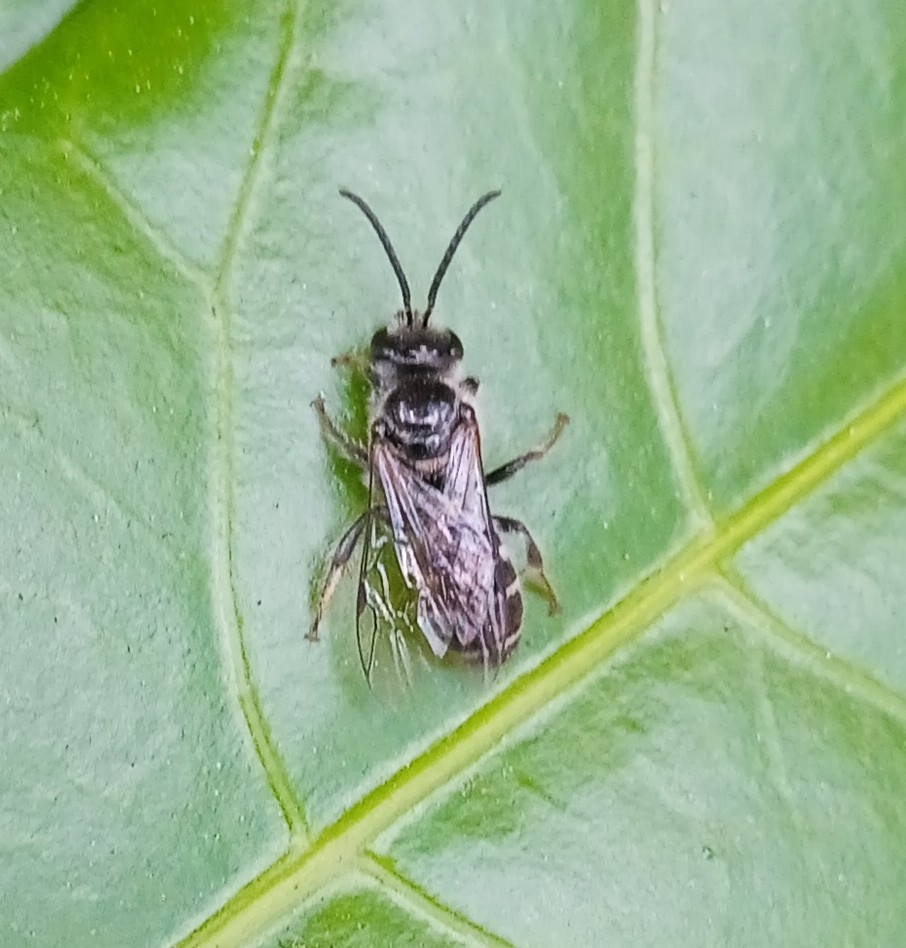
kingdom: Animalia
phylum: Arthropoda
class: Insecta
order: Hymenoptera
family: Halictidae
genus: Lasioglossum
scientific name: Lasioglossum albescens
